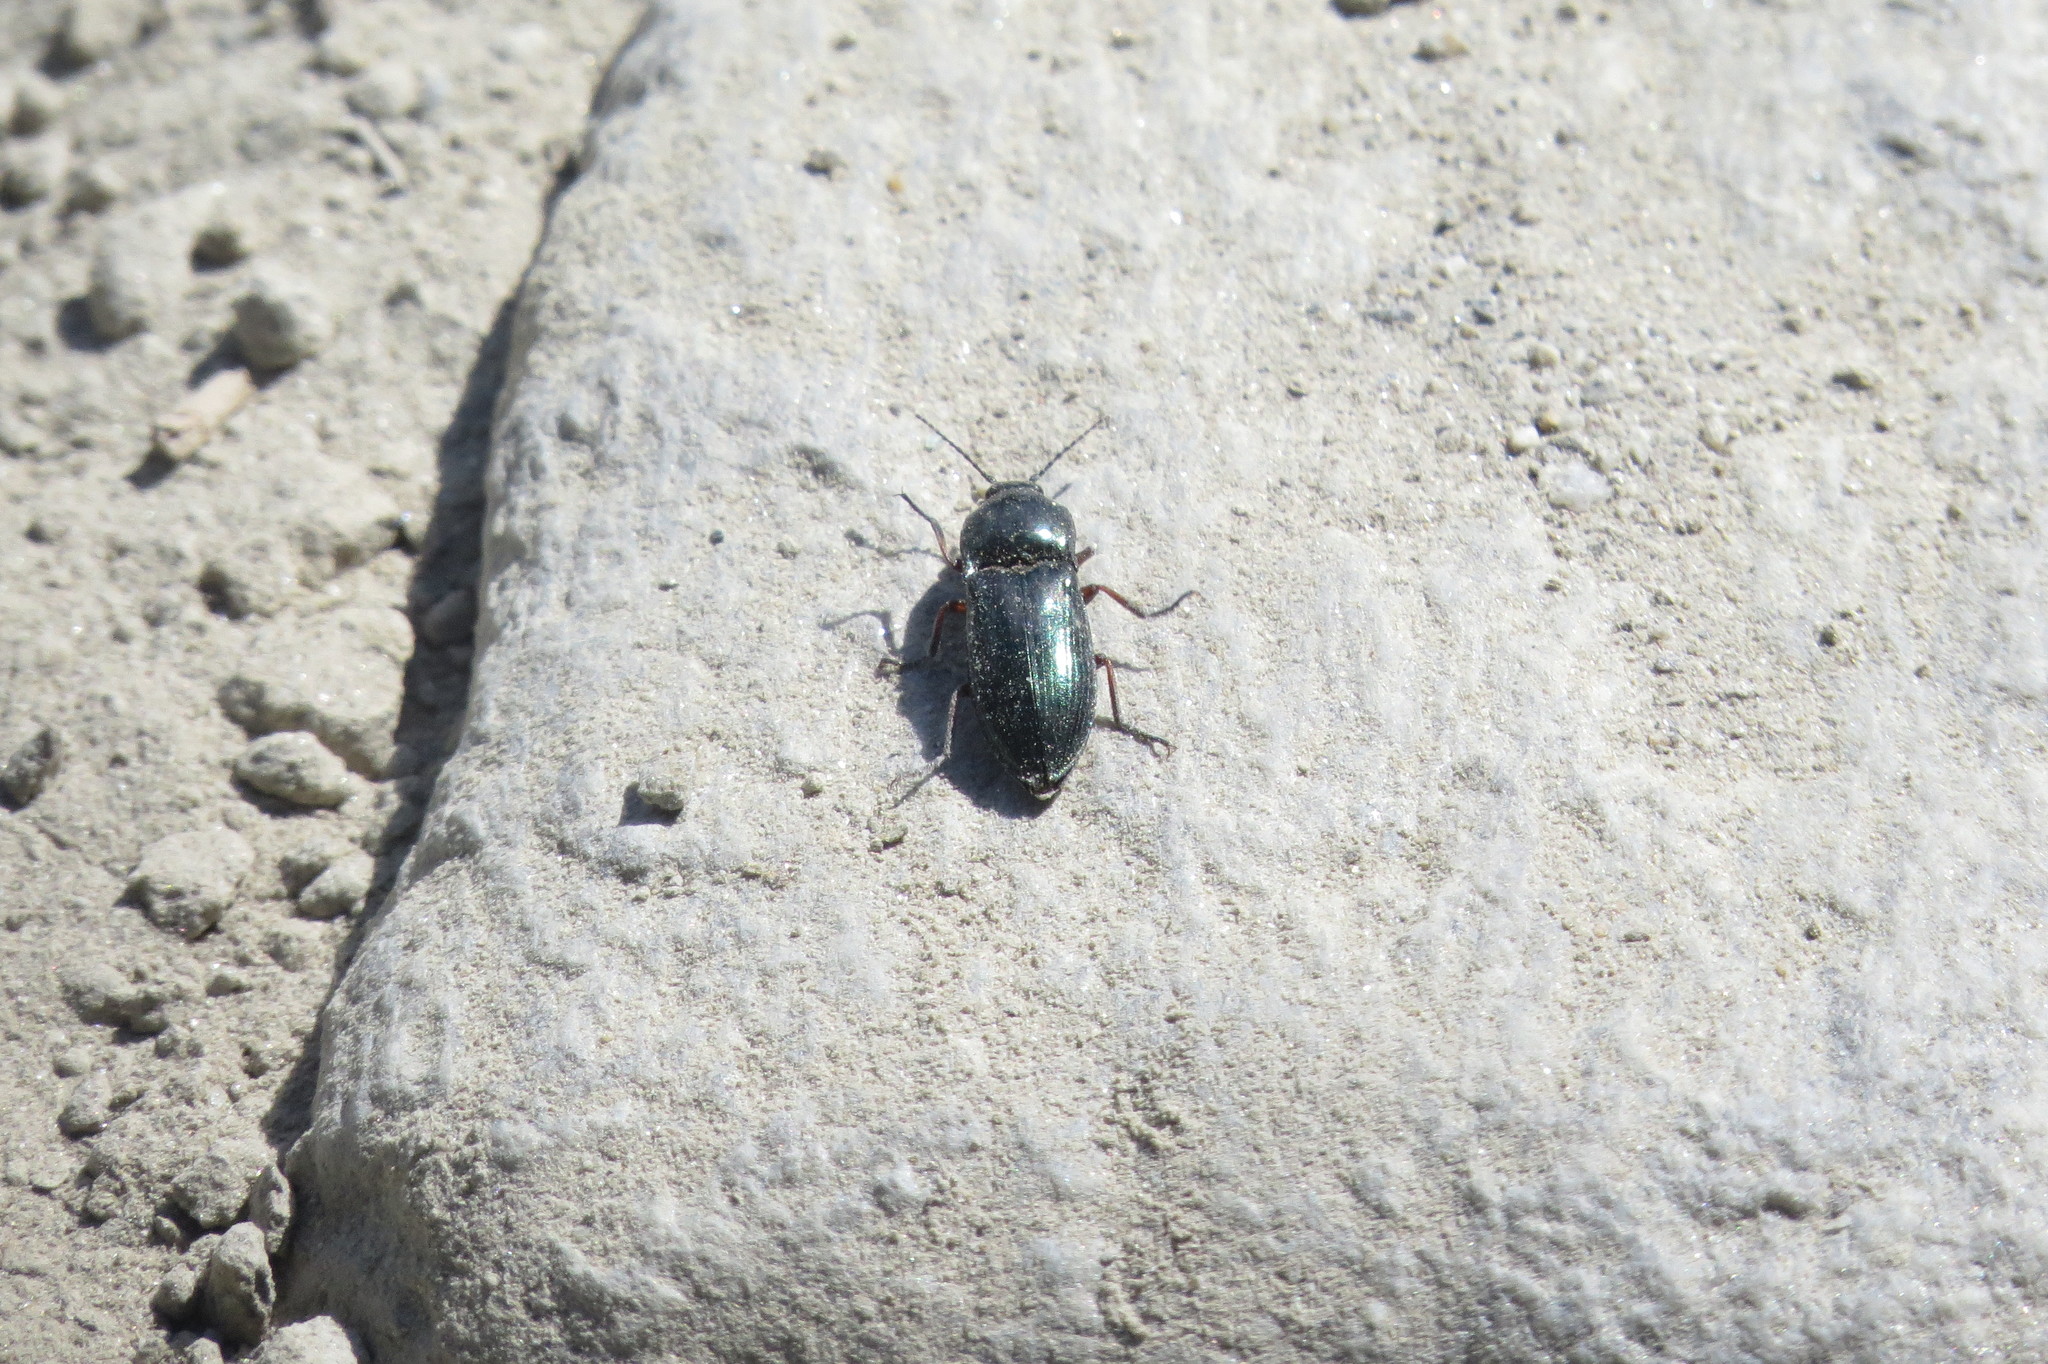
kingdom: Animalia
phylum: Arthropoda
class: Insecta
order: Coleoptera
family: Elateridae
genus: Selatosomus
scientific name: Selatosomus aeneus
